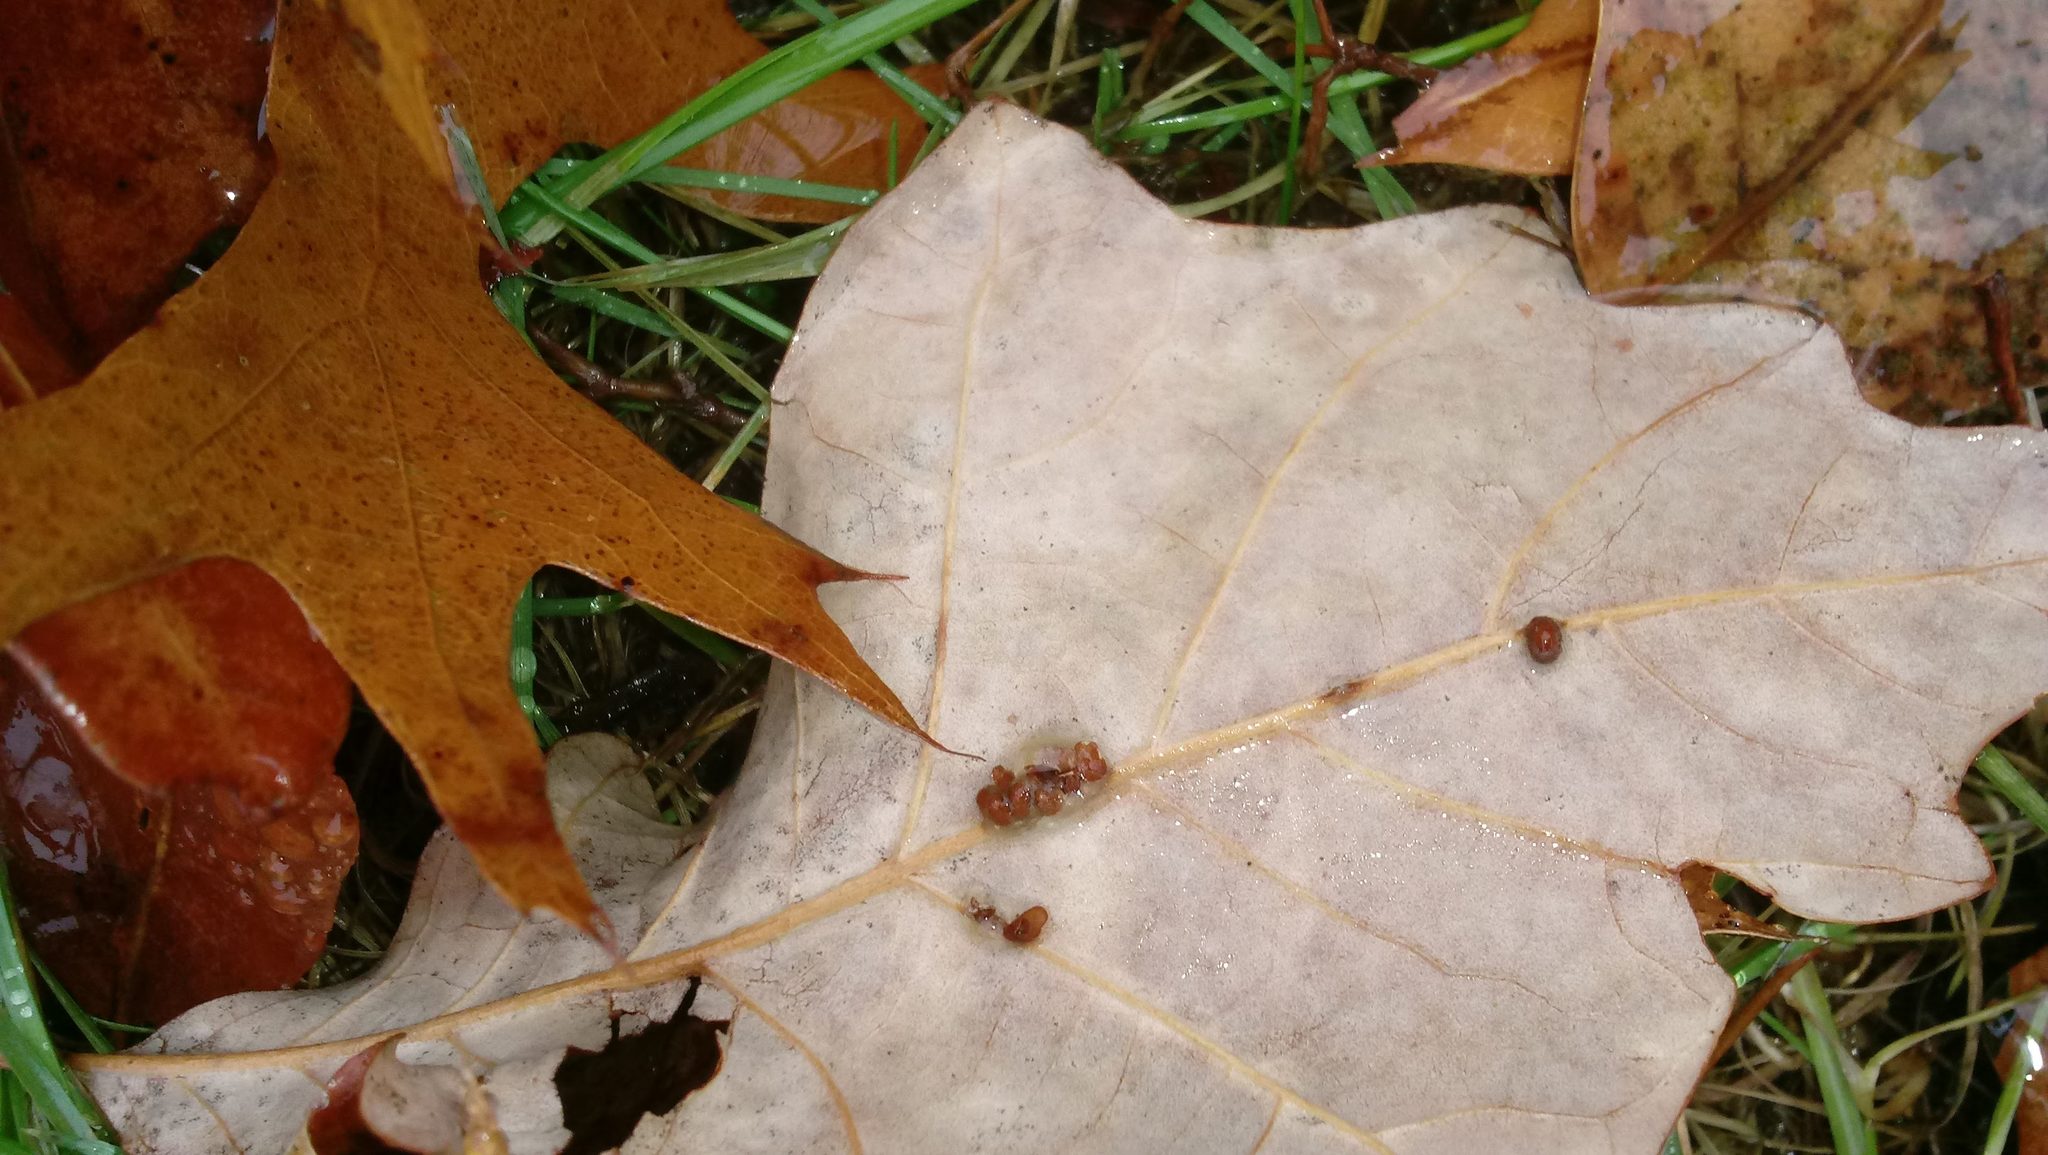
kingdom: Animalia
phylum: Arthropoda
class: Insecta
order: Hymenoptera
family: Cynipidae
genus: Andricus
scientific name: Andricus Druon ignotum
